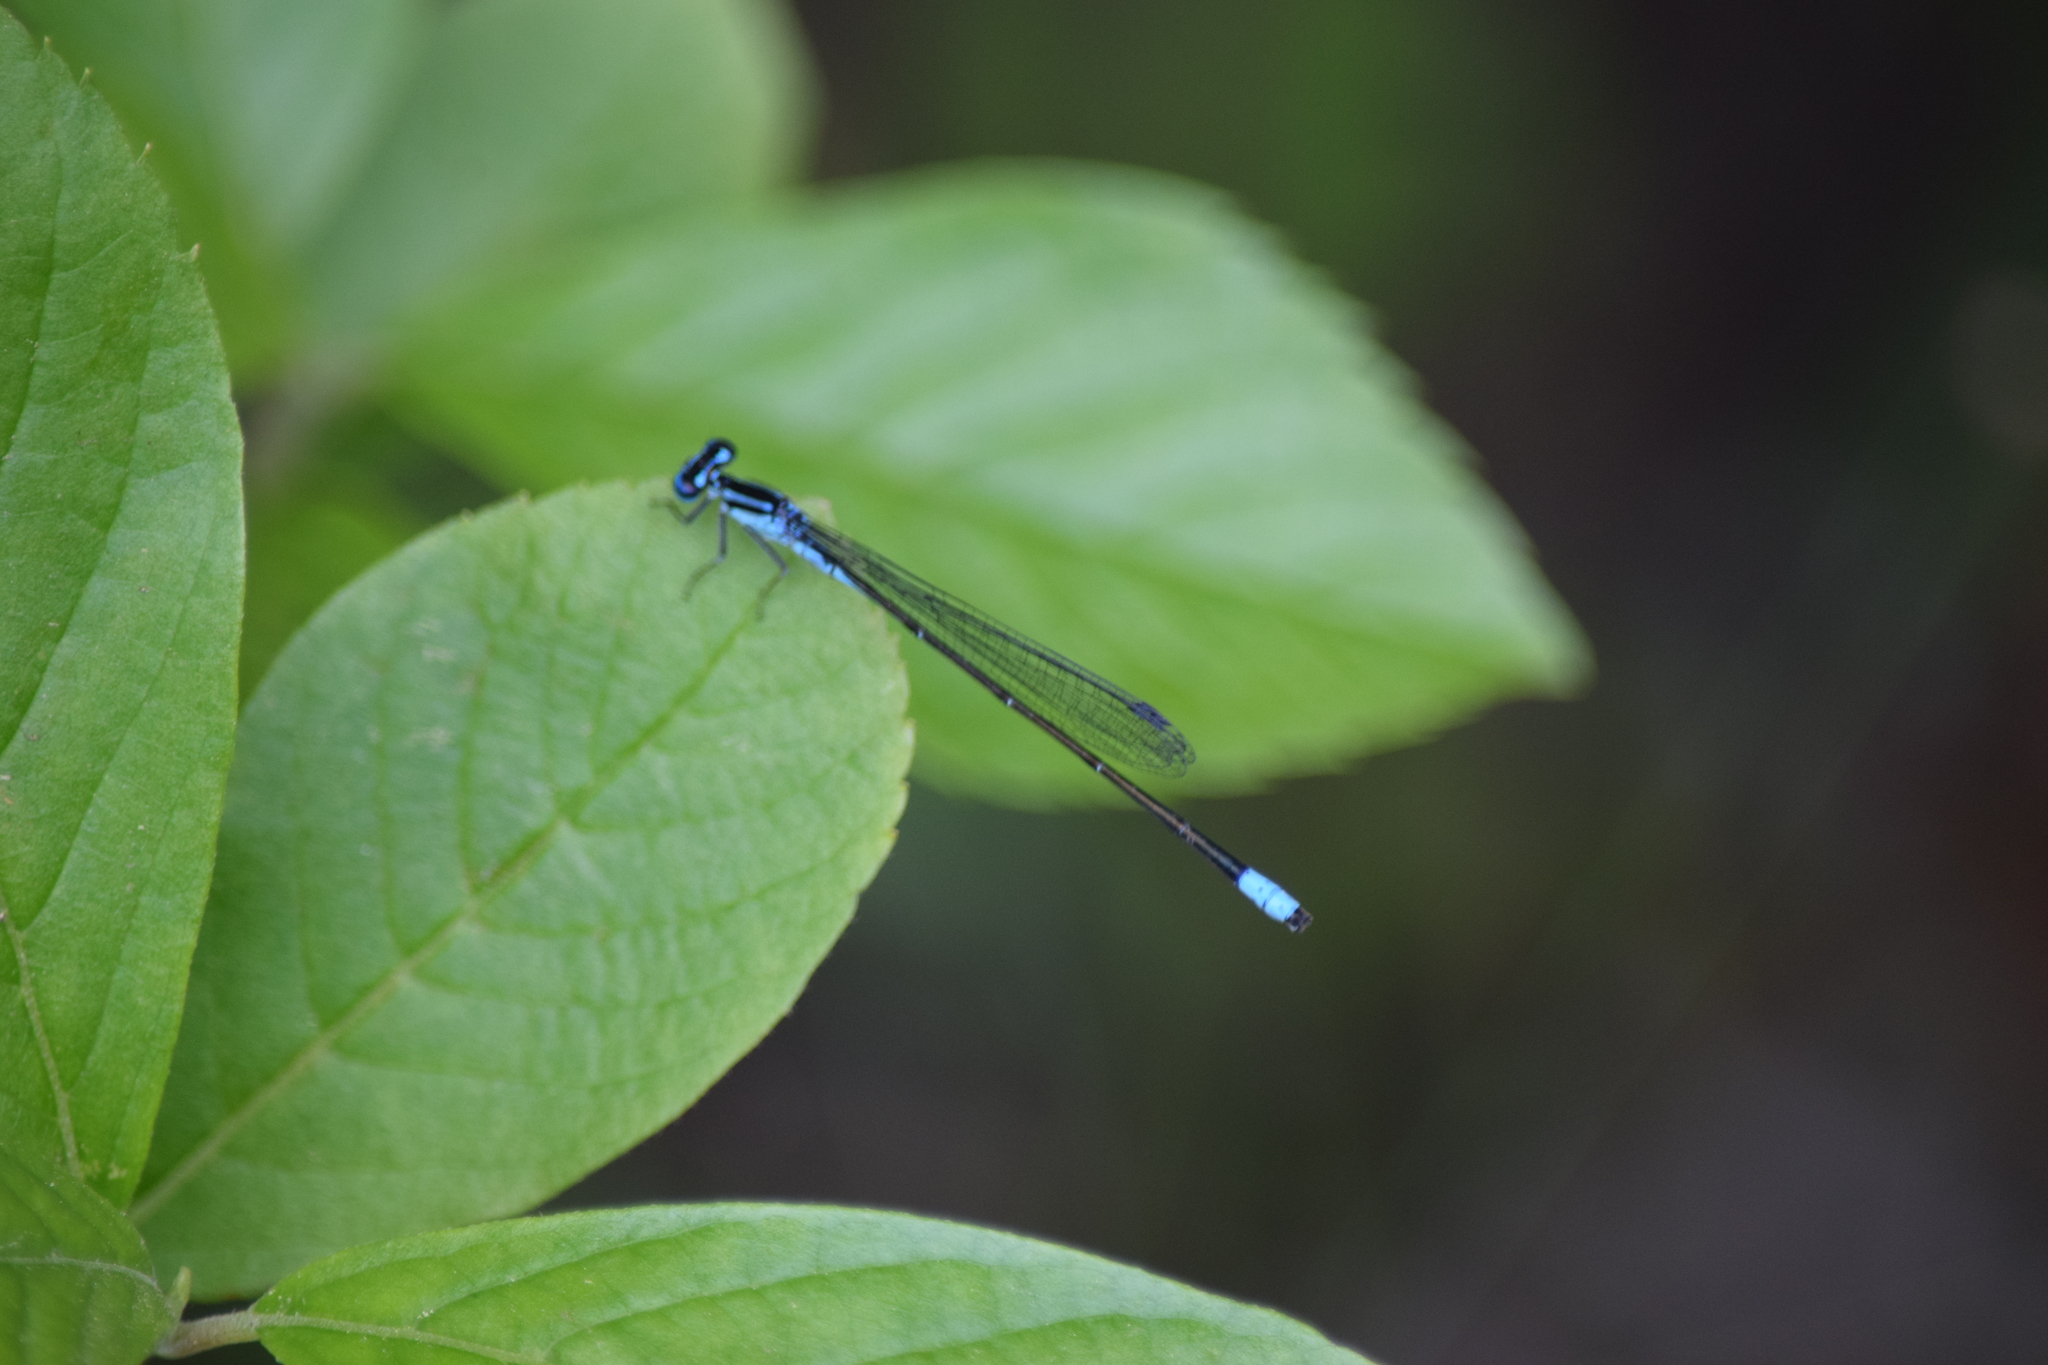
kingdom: Animalia
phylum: Arthropoda
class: Insecta
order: Odonata
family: Coenagrionidae
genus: Enallagma
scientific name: Enallagma divagans
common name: Turquoise bluet
